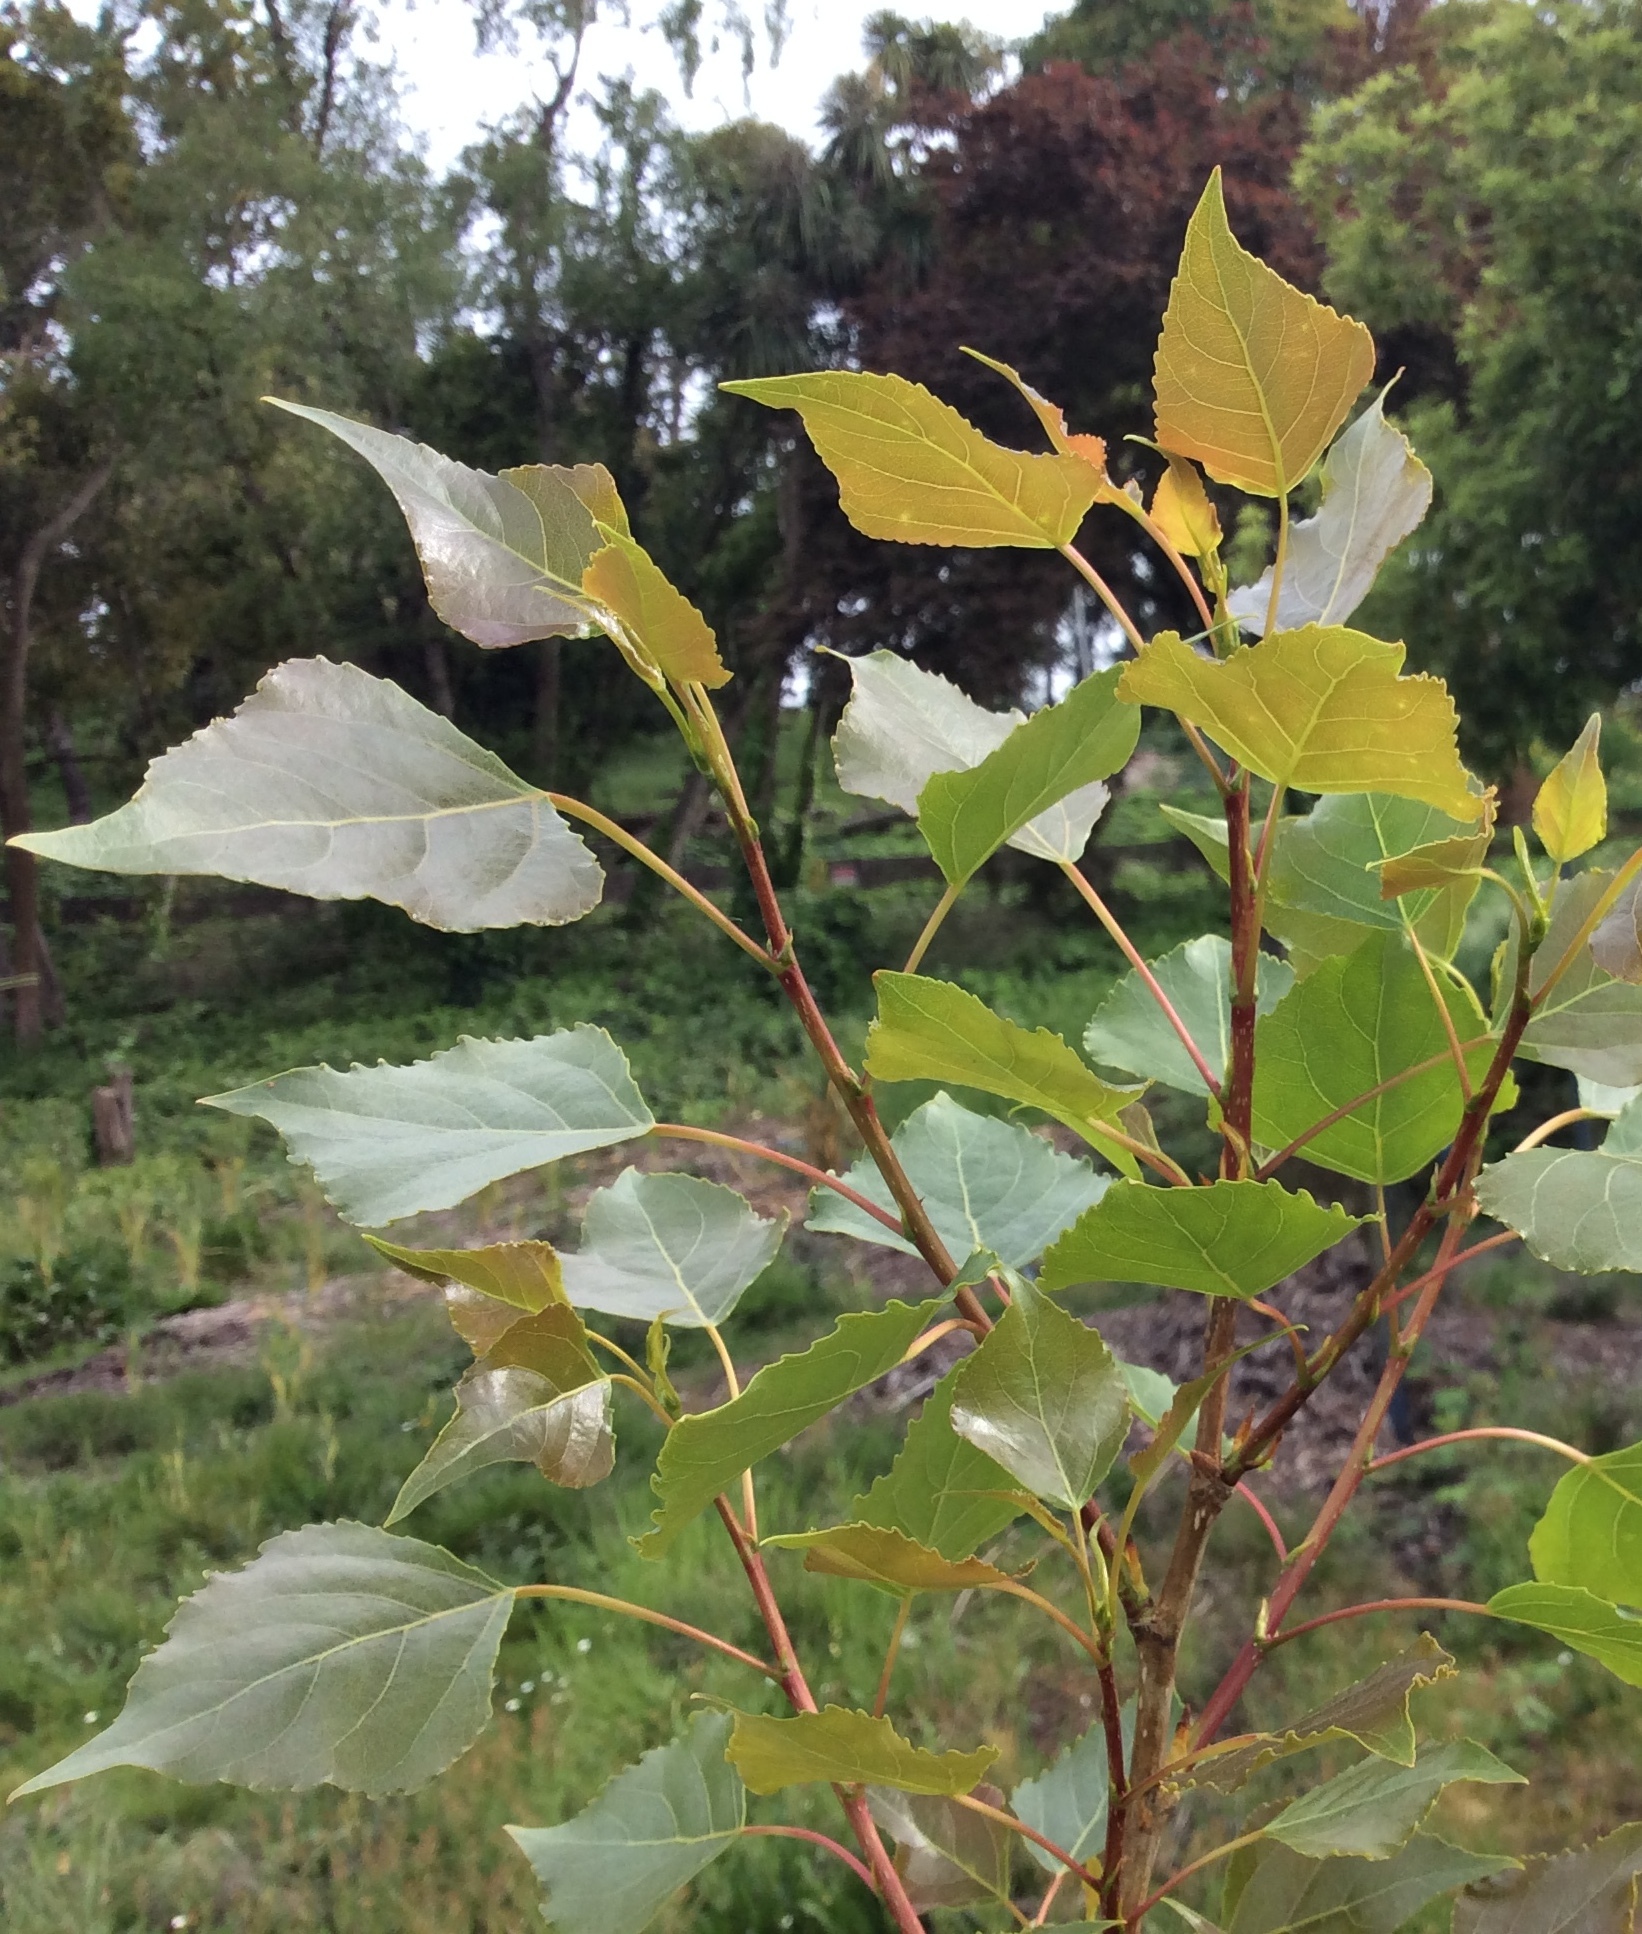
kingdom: Plantae
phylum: Tracheophyta
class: Magnoliopsida
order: Malpighiales
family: Salicaceae
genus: Populus
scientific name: Populus nigra
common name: Black poplar
